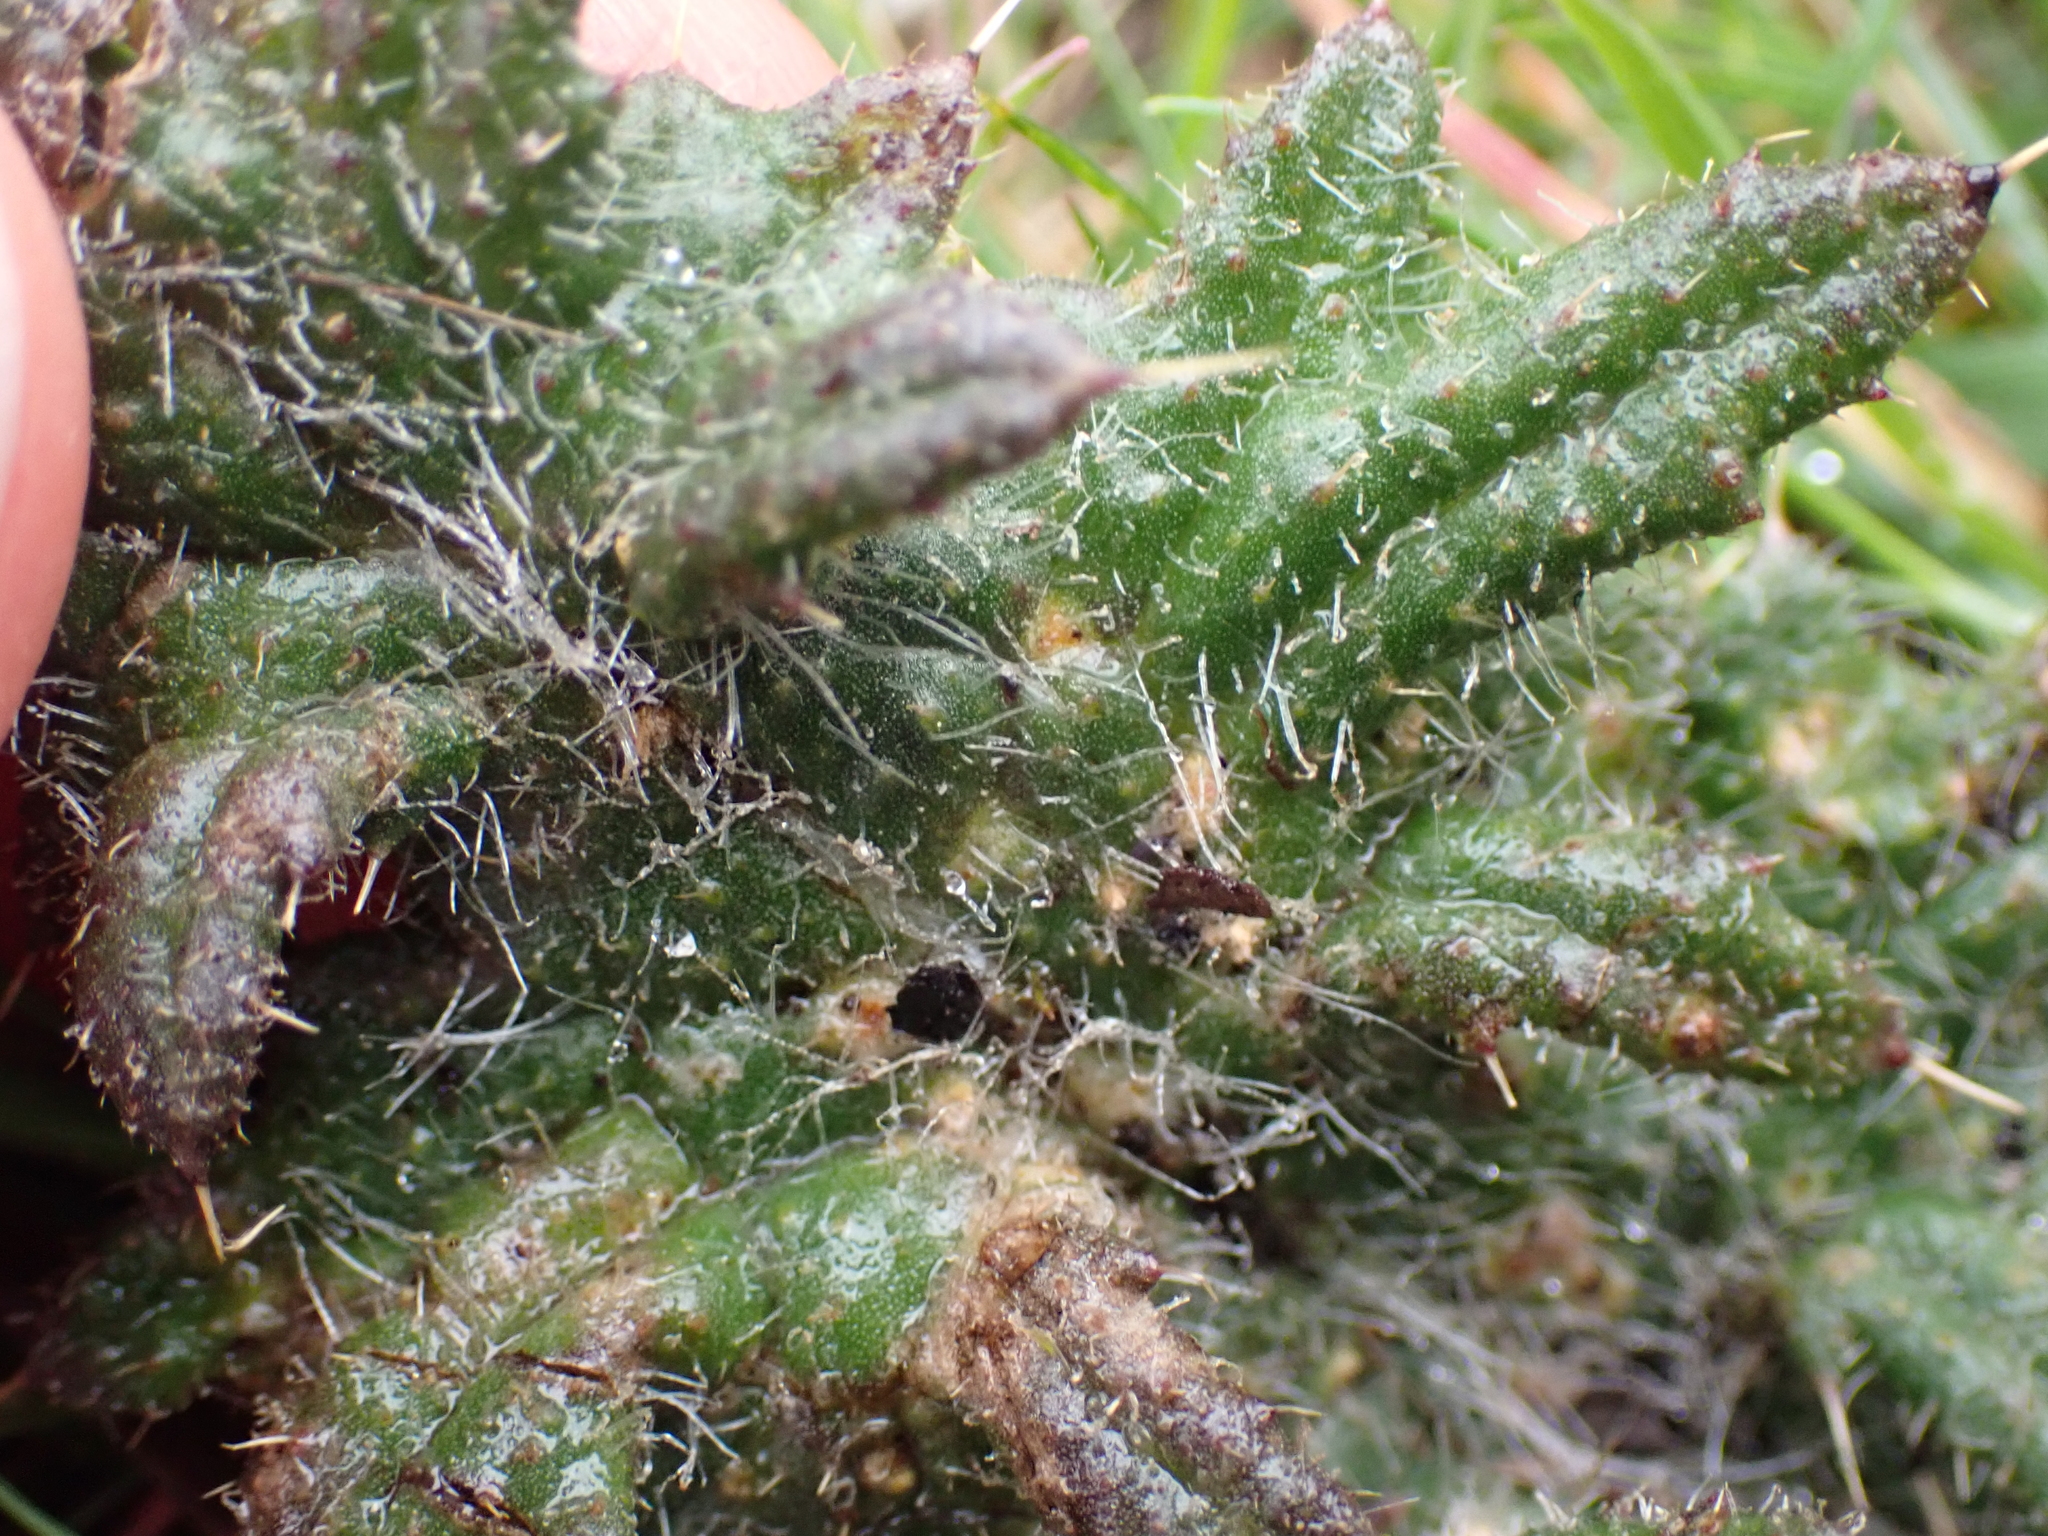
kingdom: Plantae
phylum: Tracheophyta
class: Magnoliopsida
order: Asterales
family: Asteraceae
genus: Cirsium
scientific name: Cirsium vulgare
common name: Bull thistle
